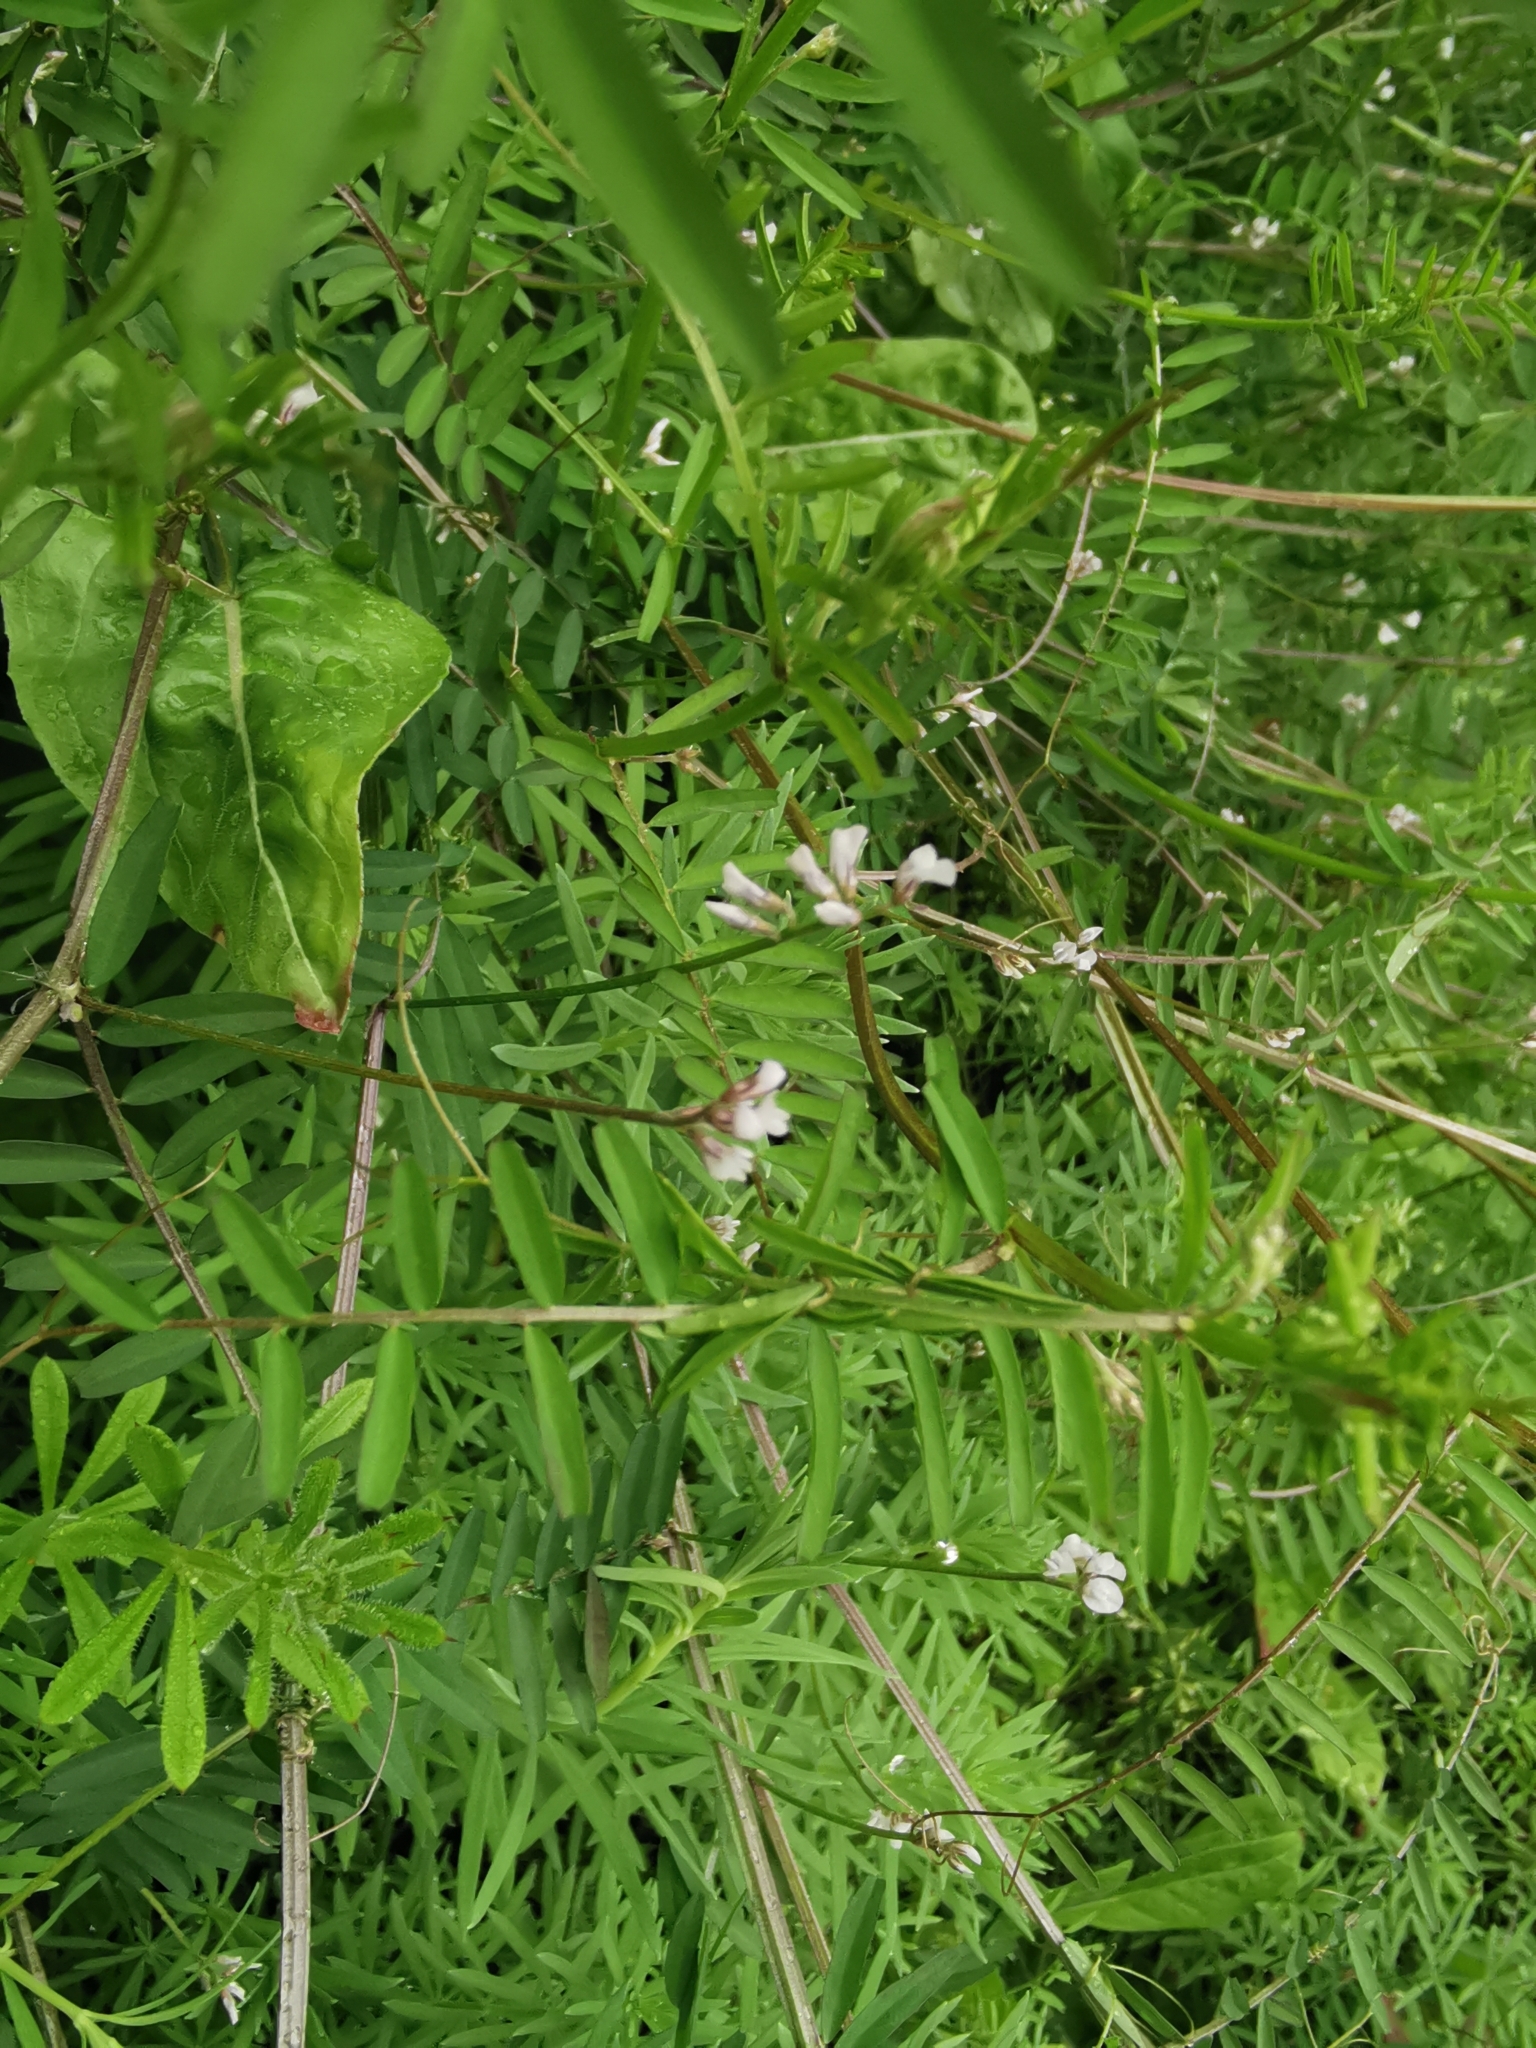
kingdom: Plantae
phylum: Tracheophyta
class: Magnoliopsida
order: Fabales
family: Fabaceae
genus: Vicia
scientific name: Vicia hirsuta
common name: Tiny vetch
